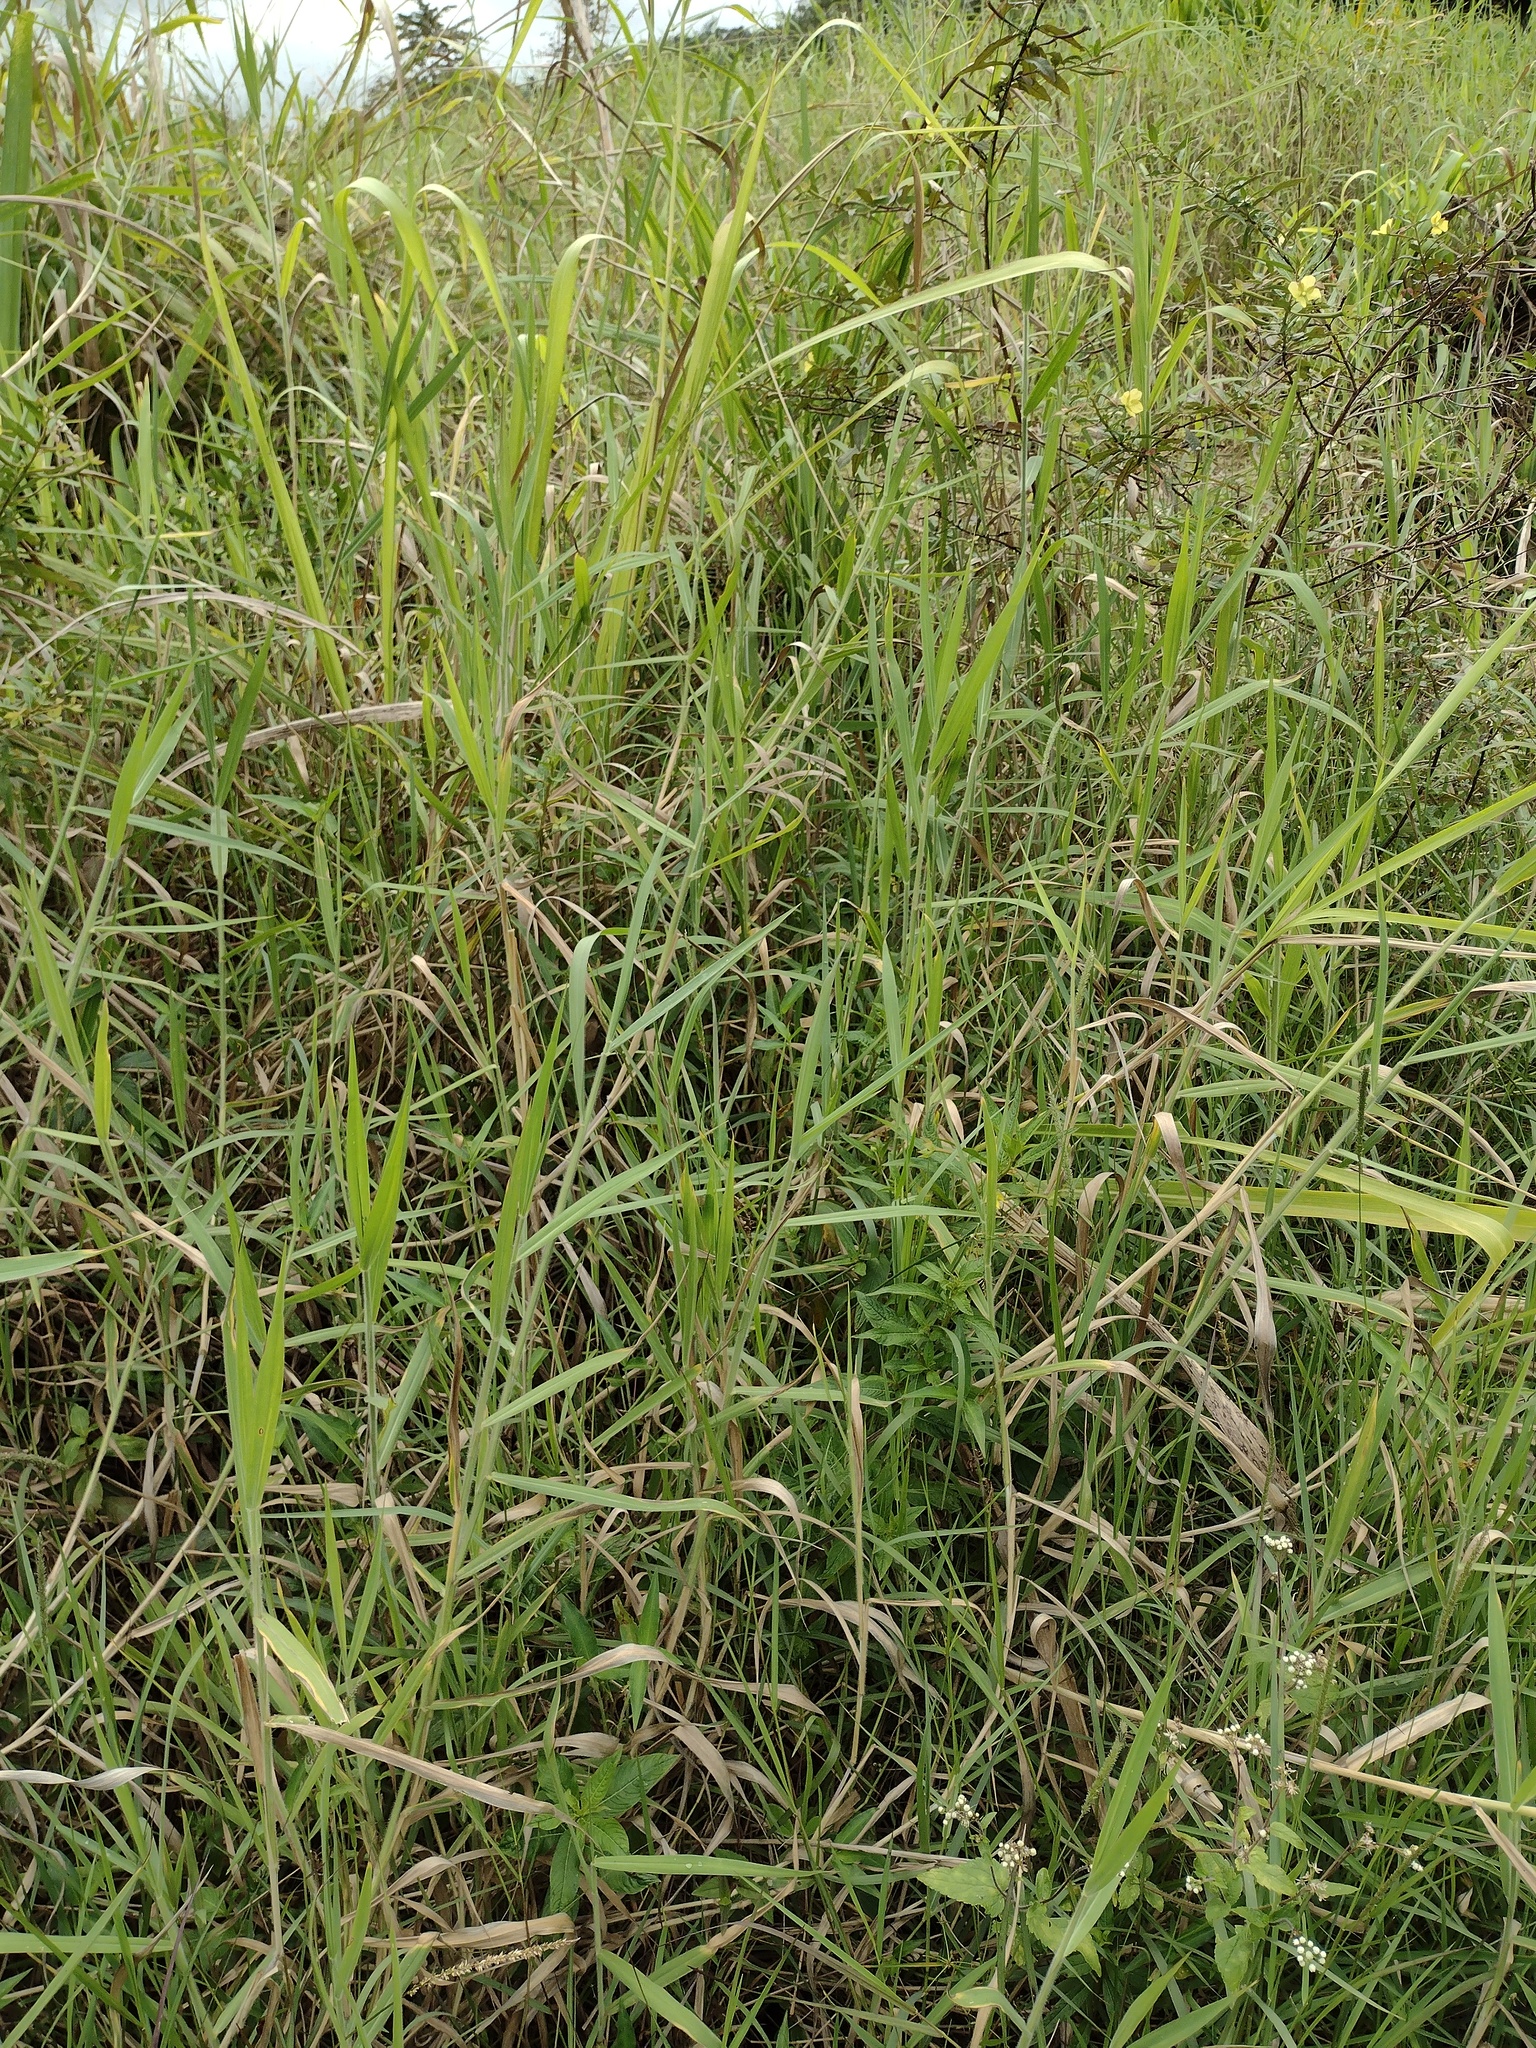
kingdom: Plantae
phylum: Tracheophyta
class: Liliopsida
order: Poales
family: Poaceae
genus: Urochloa
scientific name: Urochloa mutica
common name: Para grass
